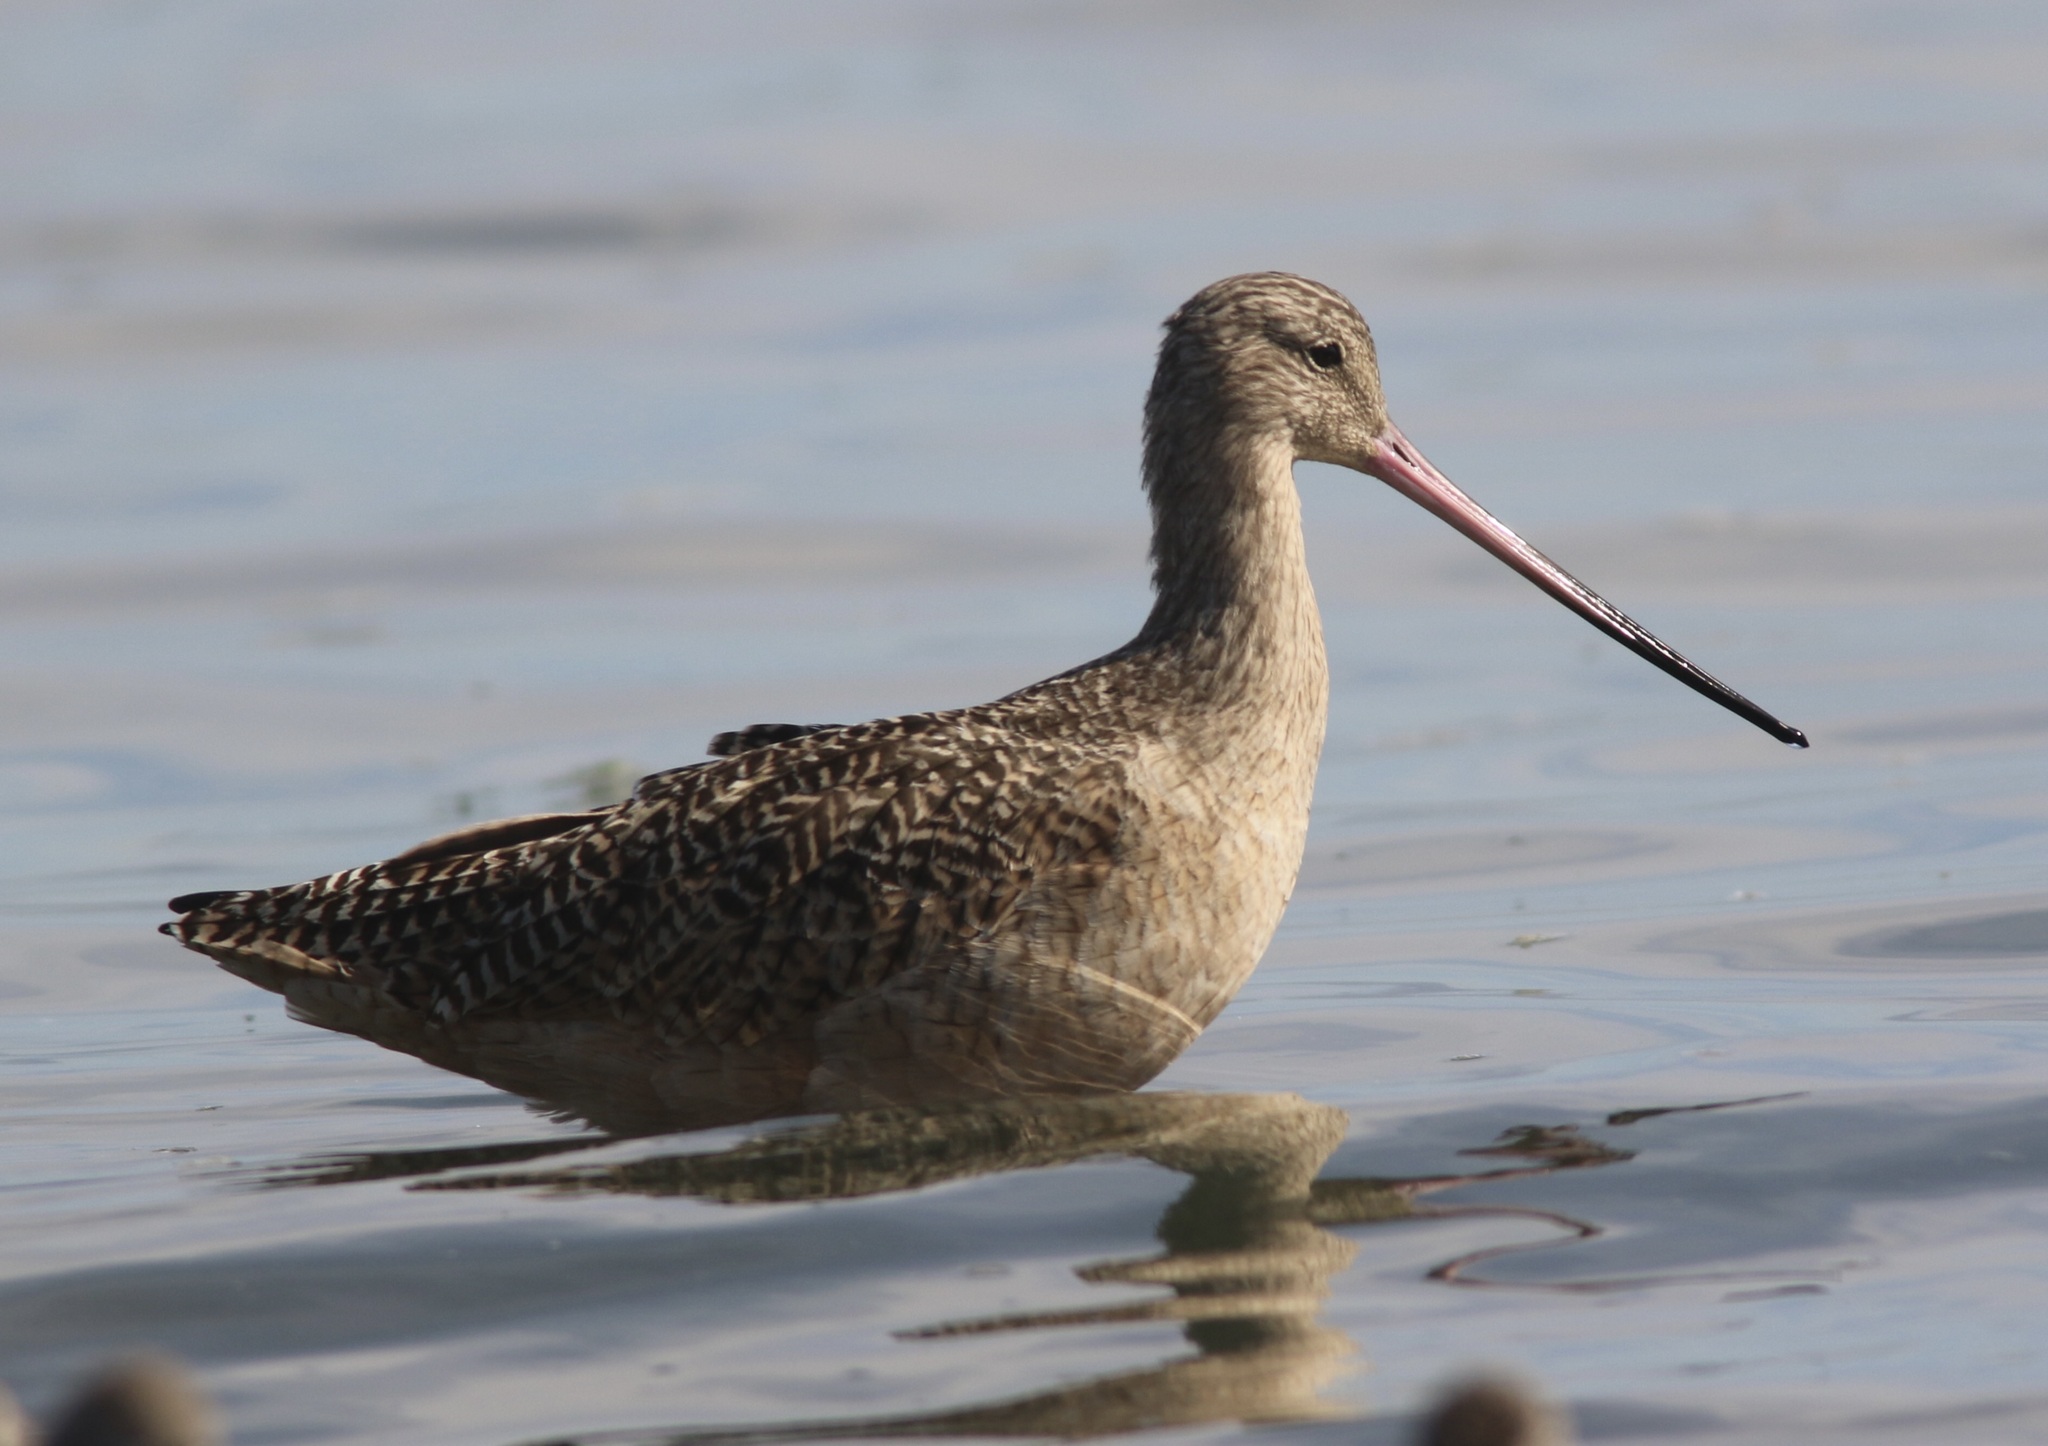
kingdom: Animalia
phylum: Chordata
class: Aves
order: Charadriiformes
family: Scolopacidae
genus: Limosa
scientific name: Limosa fedoa
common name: Marbled godwit
